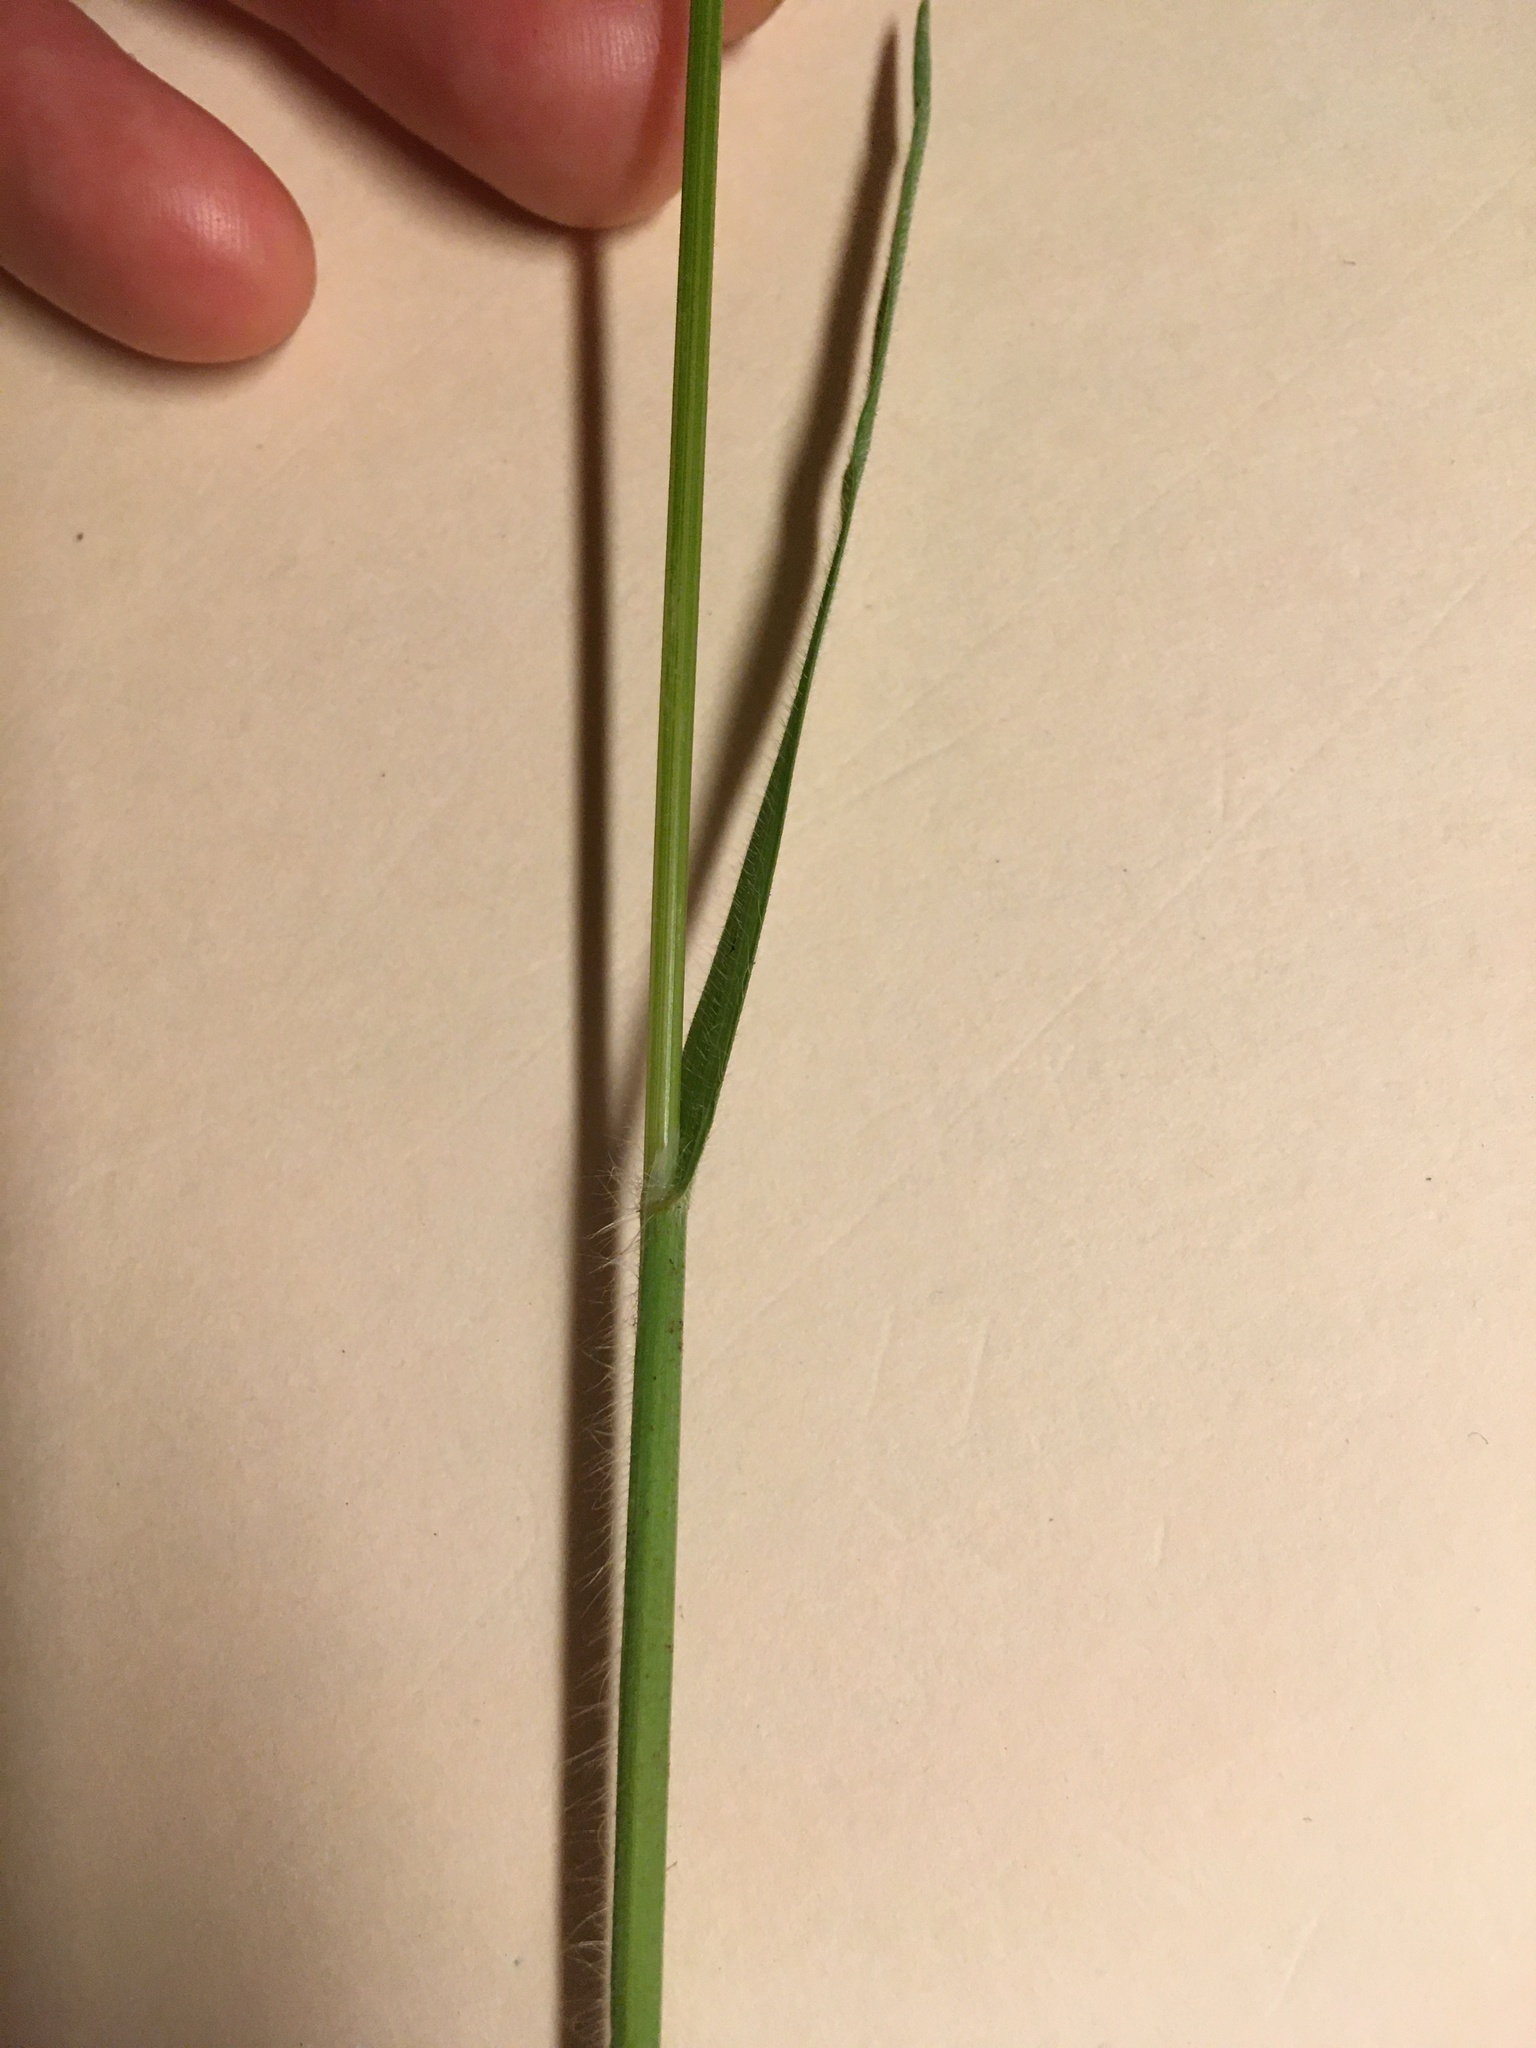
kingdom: Plantae
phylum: Tracheophyta
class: Liliopsida
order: Poales
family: Poaceae
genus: Bromus
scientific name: Bromus diandrus
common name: Ripgut brome
